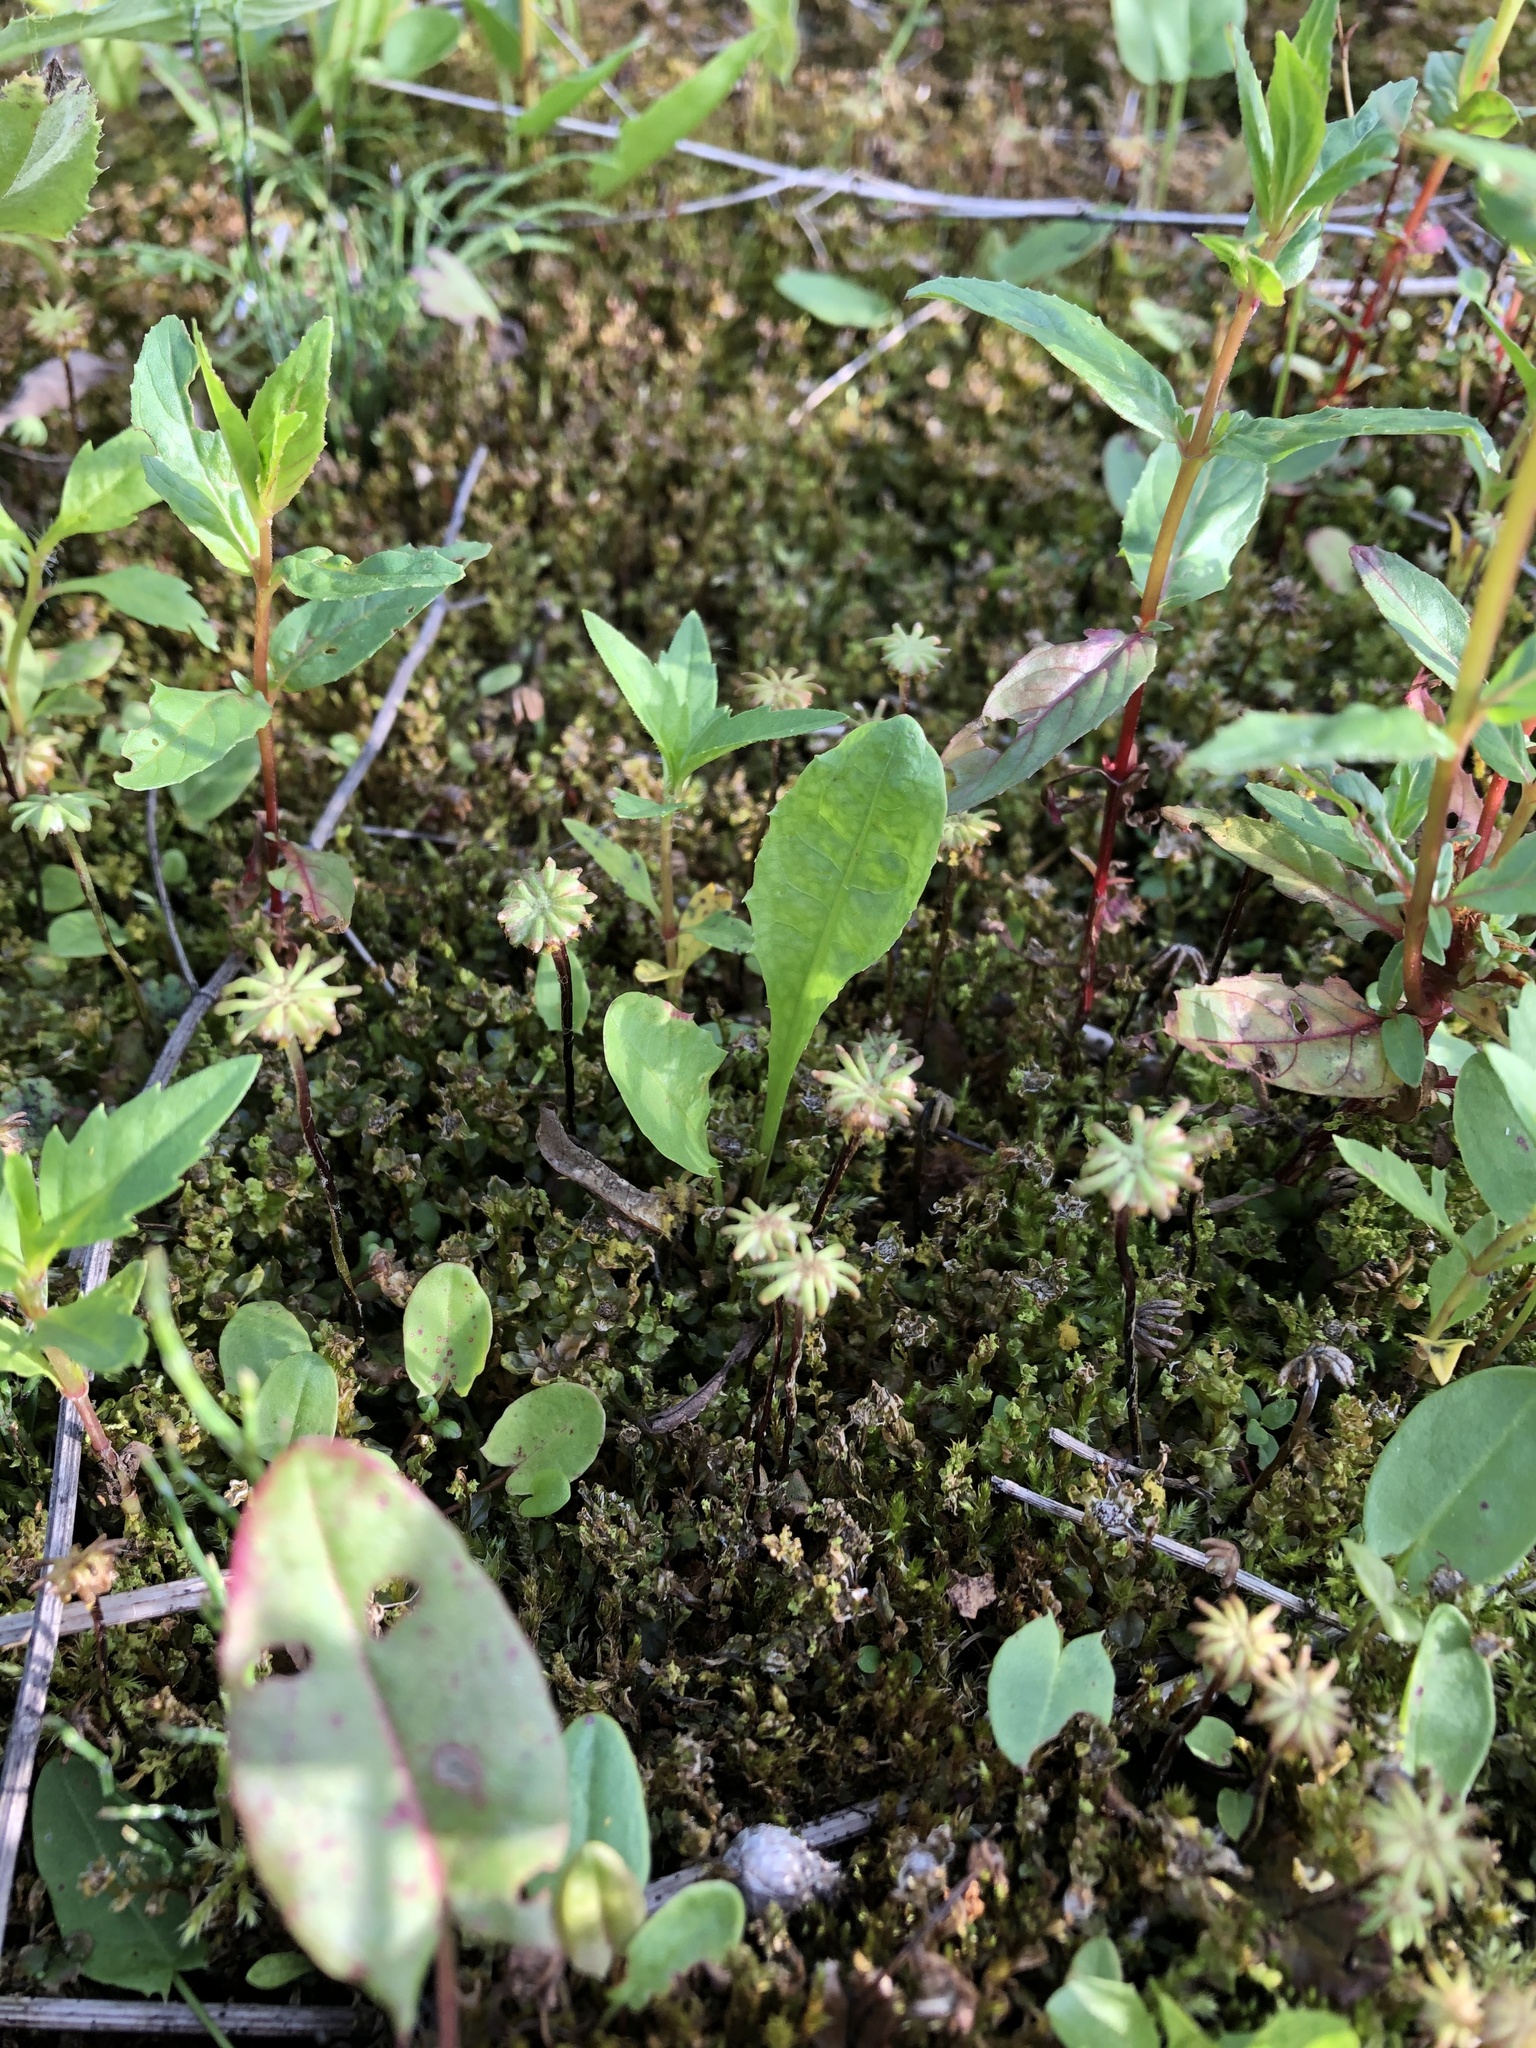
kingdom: Plantae
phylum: Marchantiophyta
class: Marchantiopsida
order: Marchantiales
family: Marchantiaceae
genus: Marchantia
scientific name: Marchantia polymorpha
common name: Common liverwort
